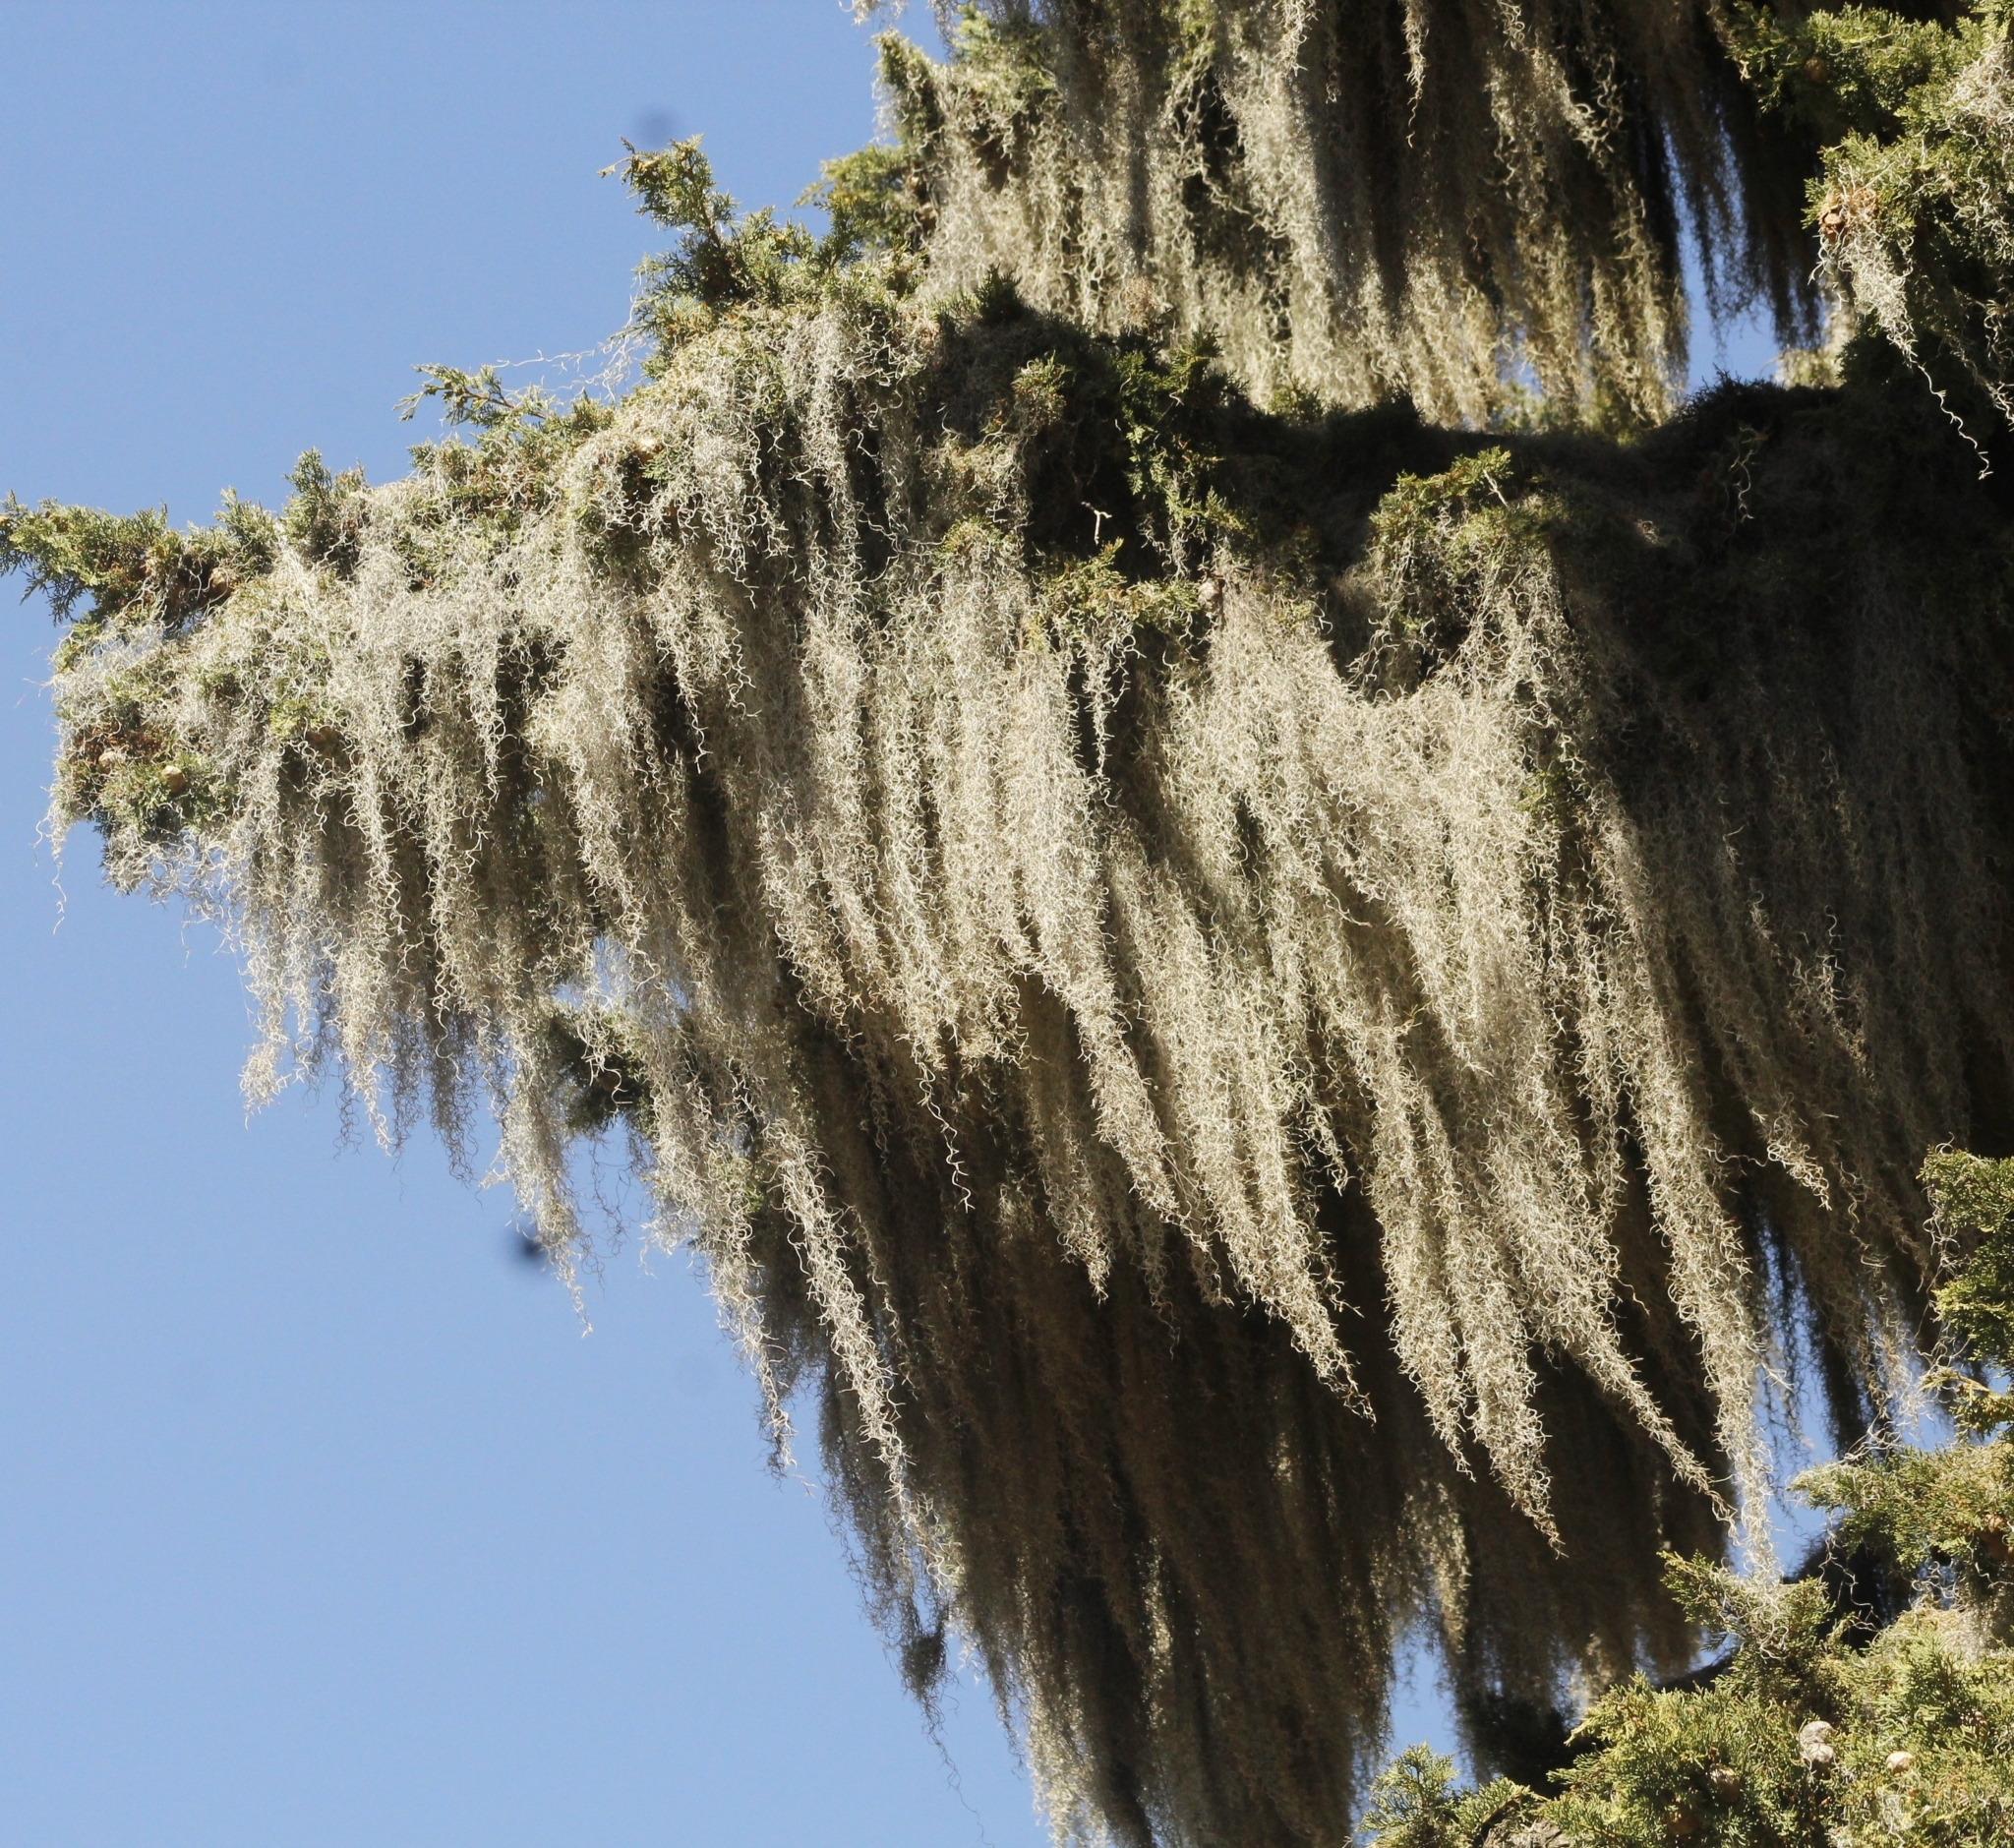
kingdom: Plantae
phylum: Tracheophyta
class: Liliopsida
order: Poales
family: Bromeliaceae
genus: Tillandsia
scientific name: Tillandsia usneoides
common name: Spanish moss
